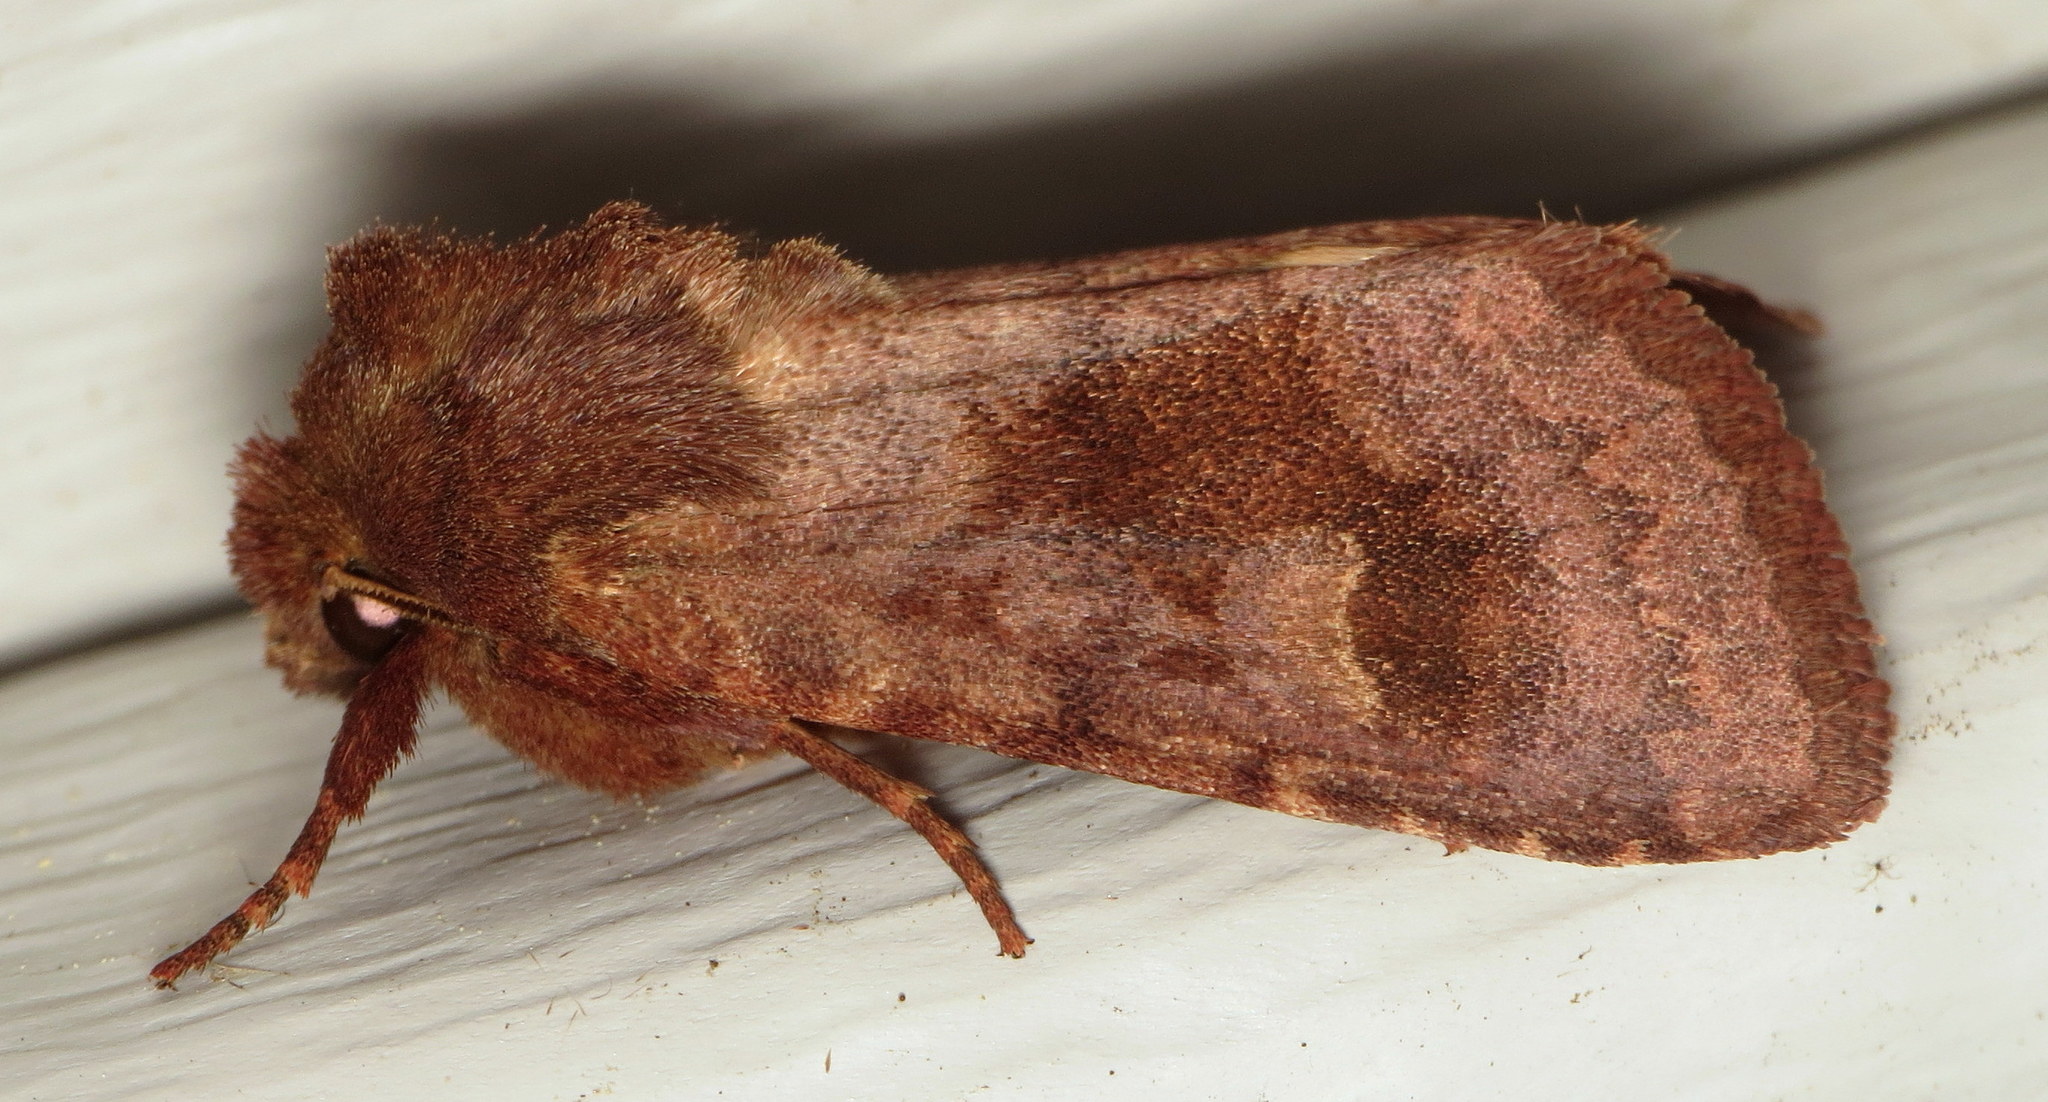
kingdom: Animalia
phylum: Arthropoda
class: Insecta
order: Lepidoptera
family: Noctuidae
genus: Nephelodes
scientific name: Nephelodes minians
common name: Bronzed cutworm
